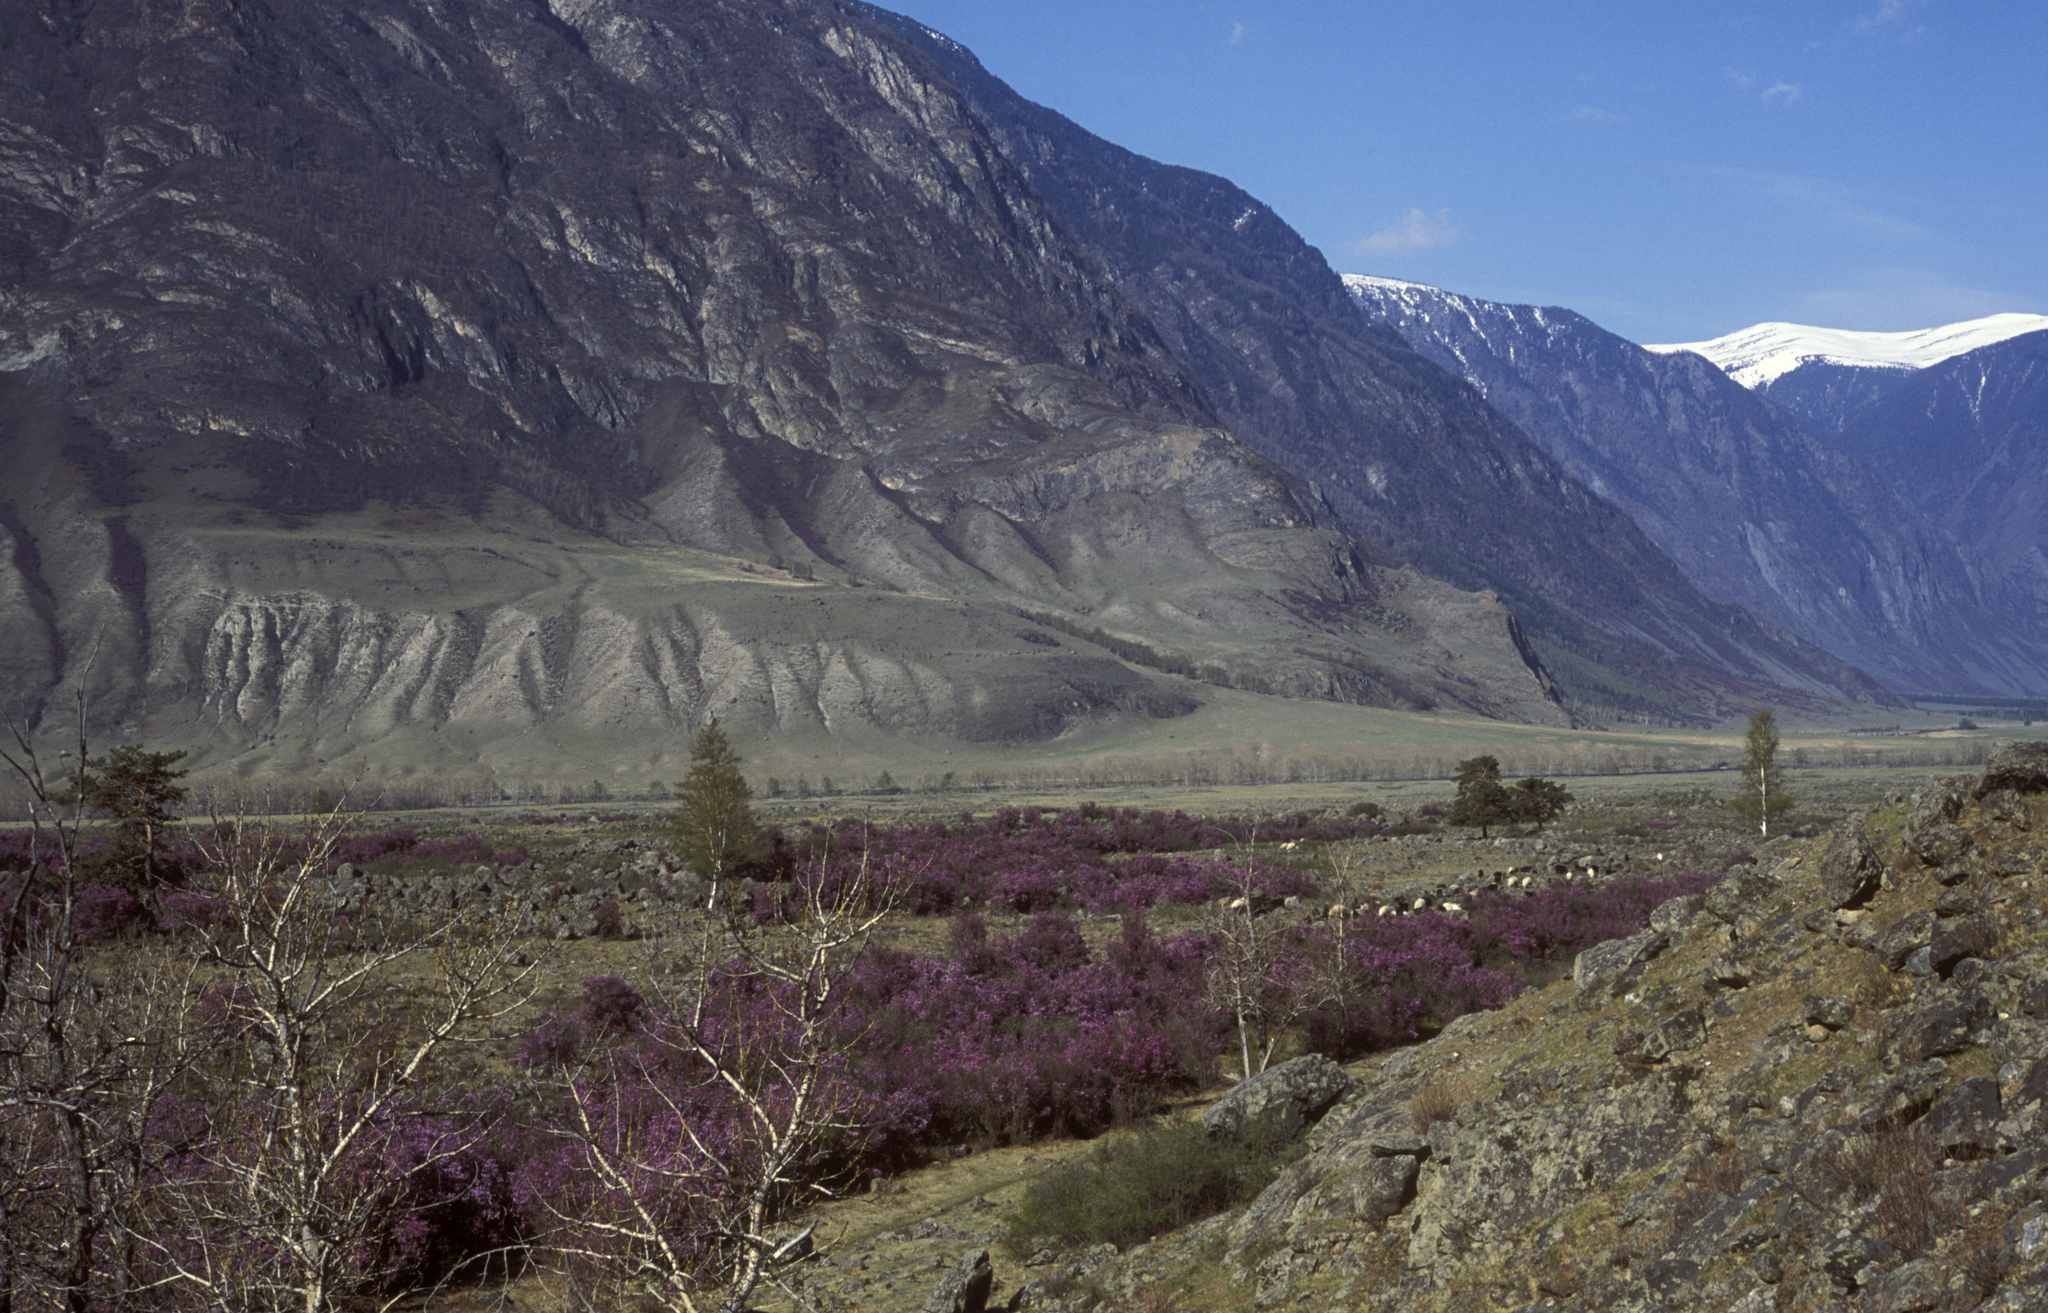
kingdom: Plantae
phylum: Tracheophyta
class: Magnoliopsida
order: Malpighiales
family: Salicaceae
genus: Populus
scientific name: Populus laurifolia
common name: Laurel-leaf poplar
